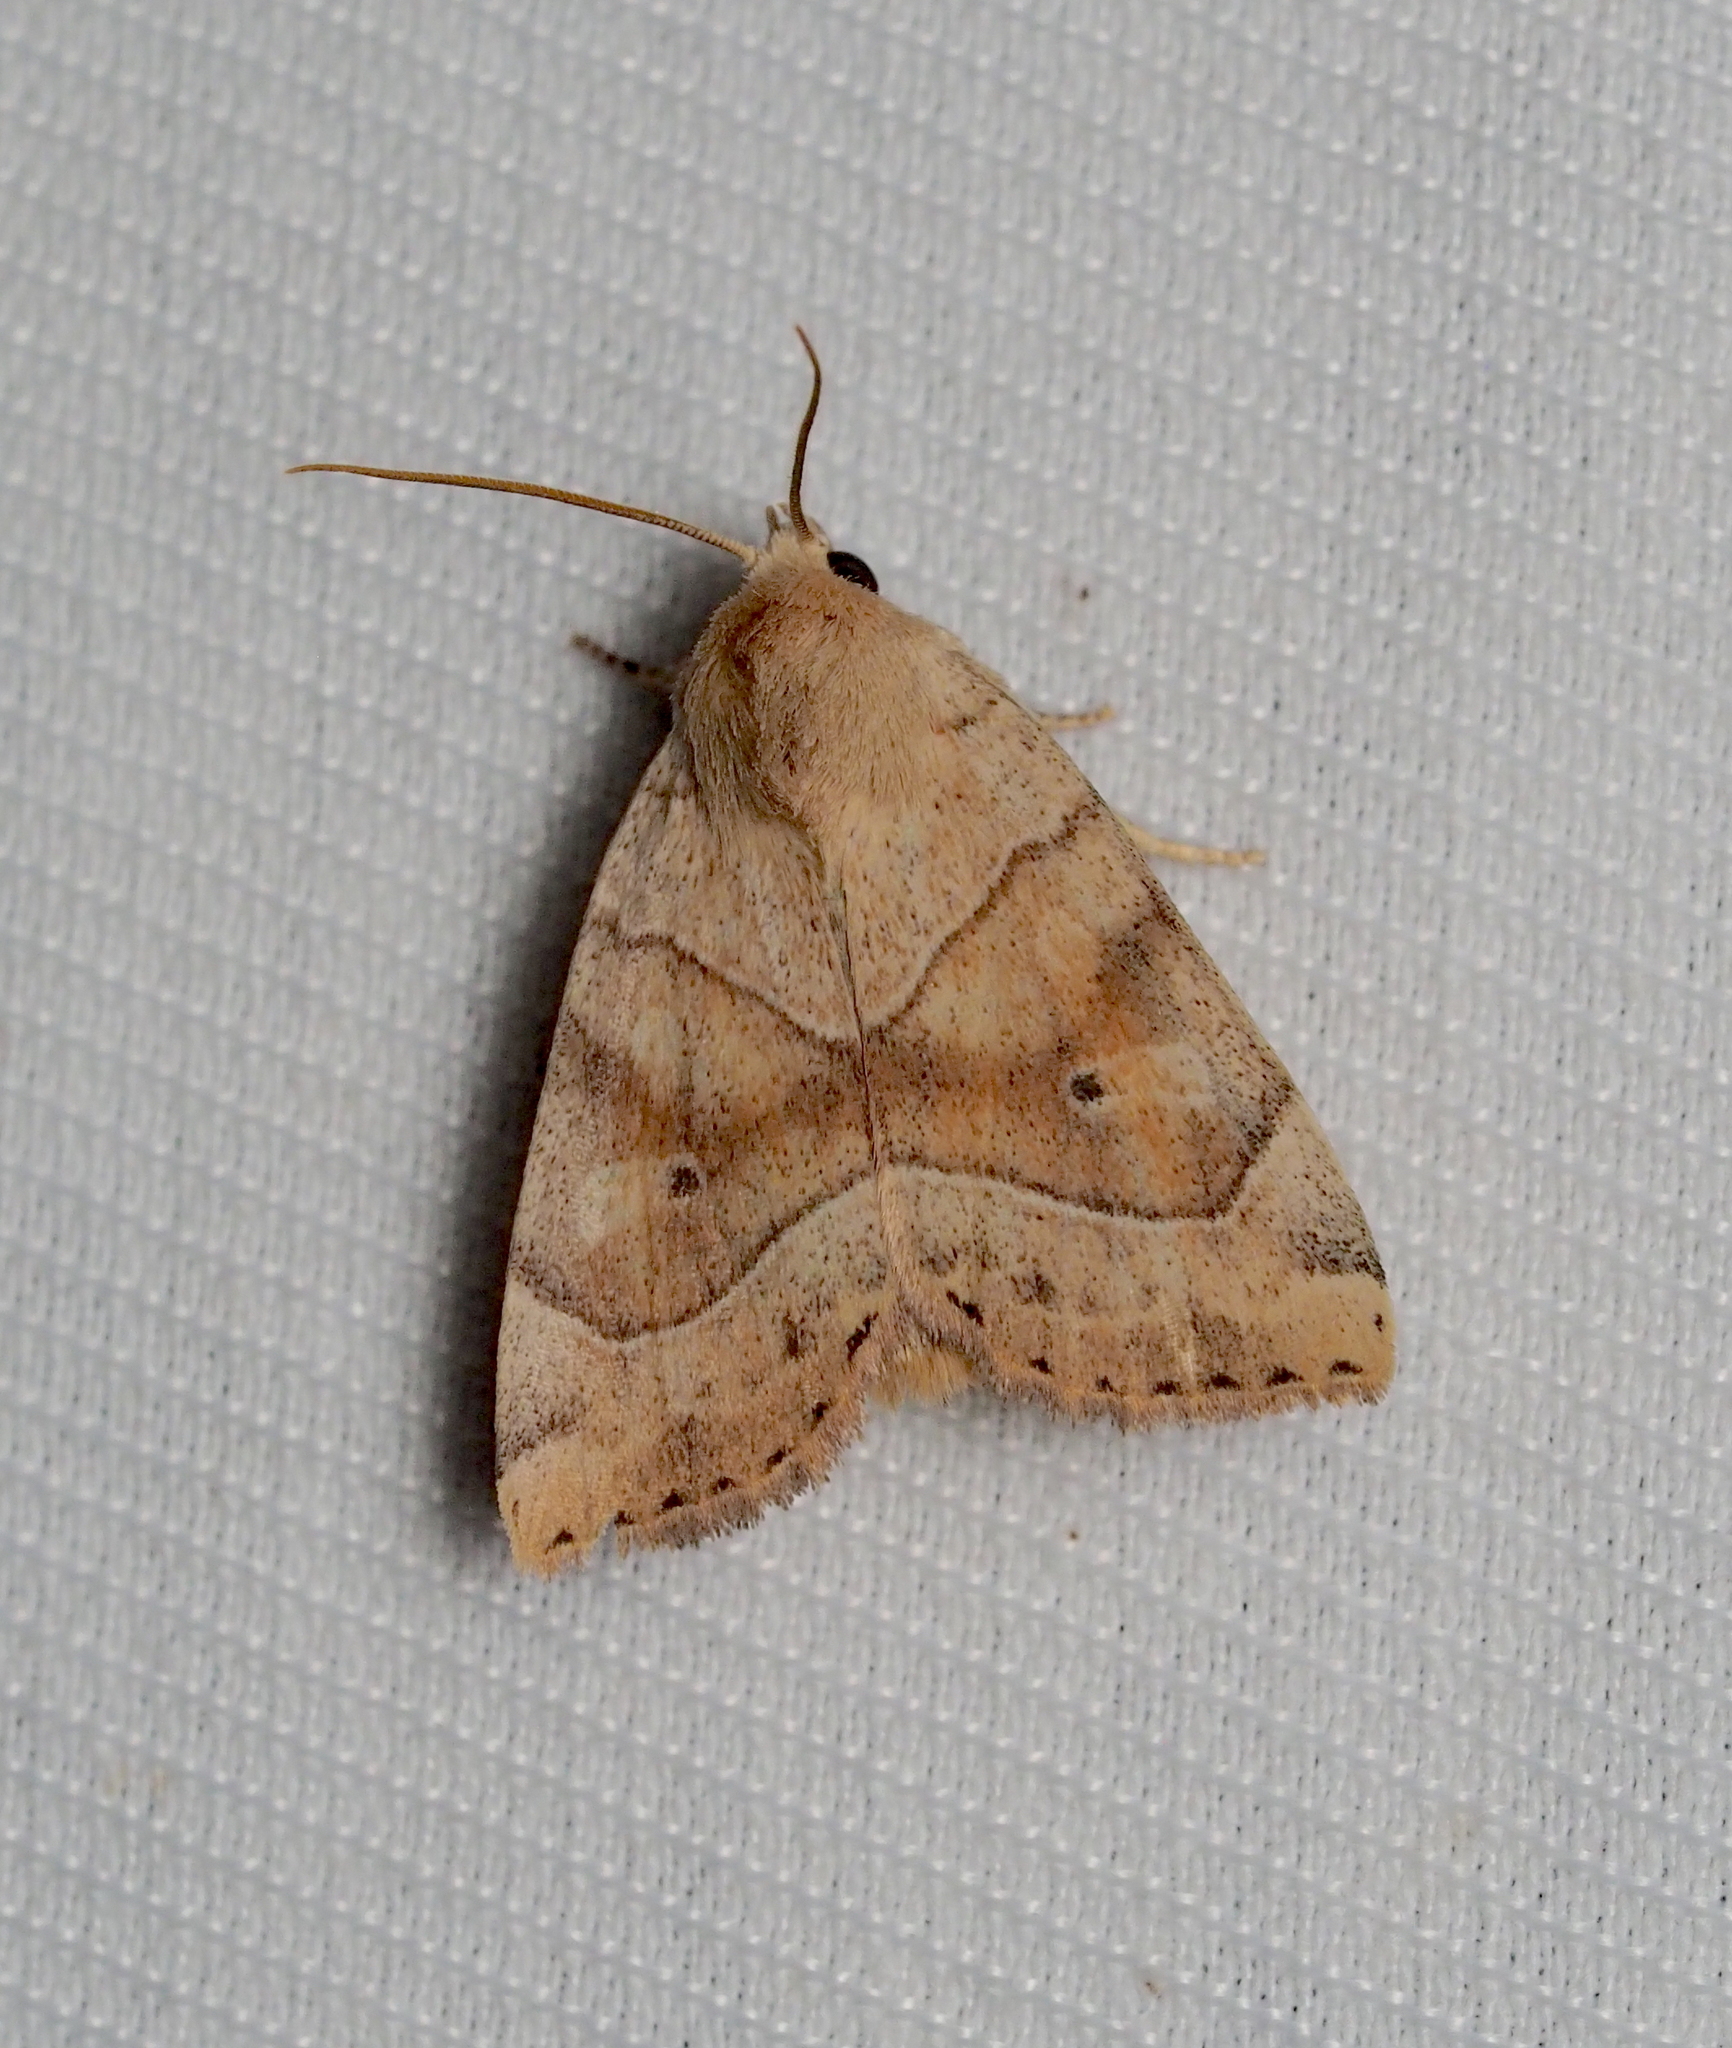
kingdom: Animalia
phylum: Arthropoda
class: Insecta
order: Lepidoptera
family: Noctuidae
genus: Cosmia
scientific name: Cosmia trapezina
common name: Dun-bar
